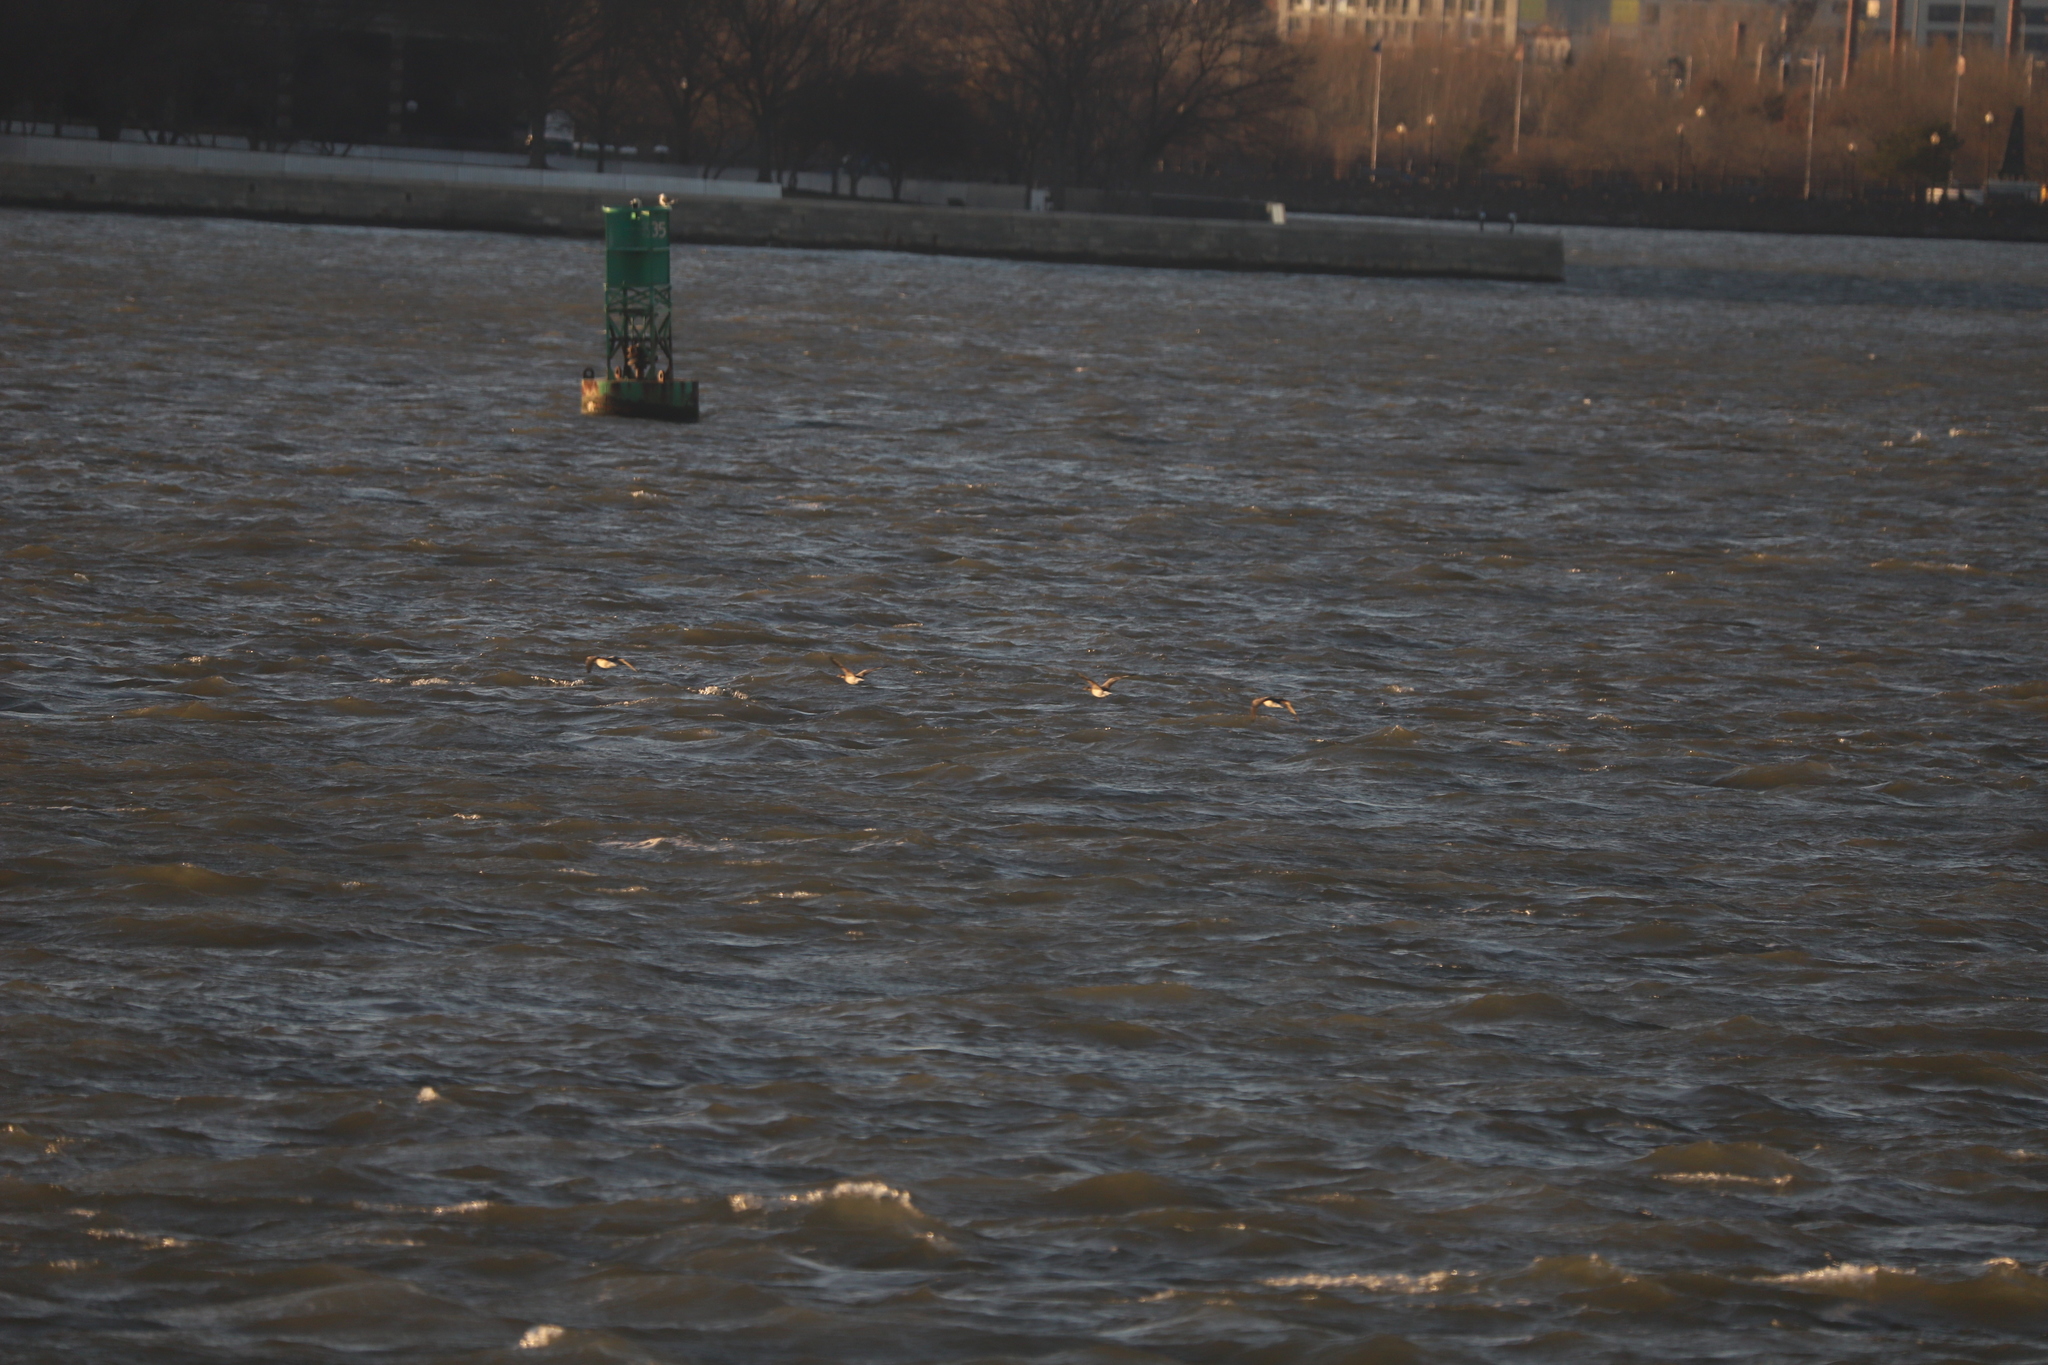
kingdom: Animalia
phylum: Chordata
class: Aves
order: Anseriformes
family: Anatidae
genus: Branta
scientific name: Branta bernicla
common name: Brant goose
